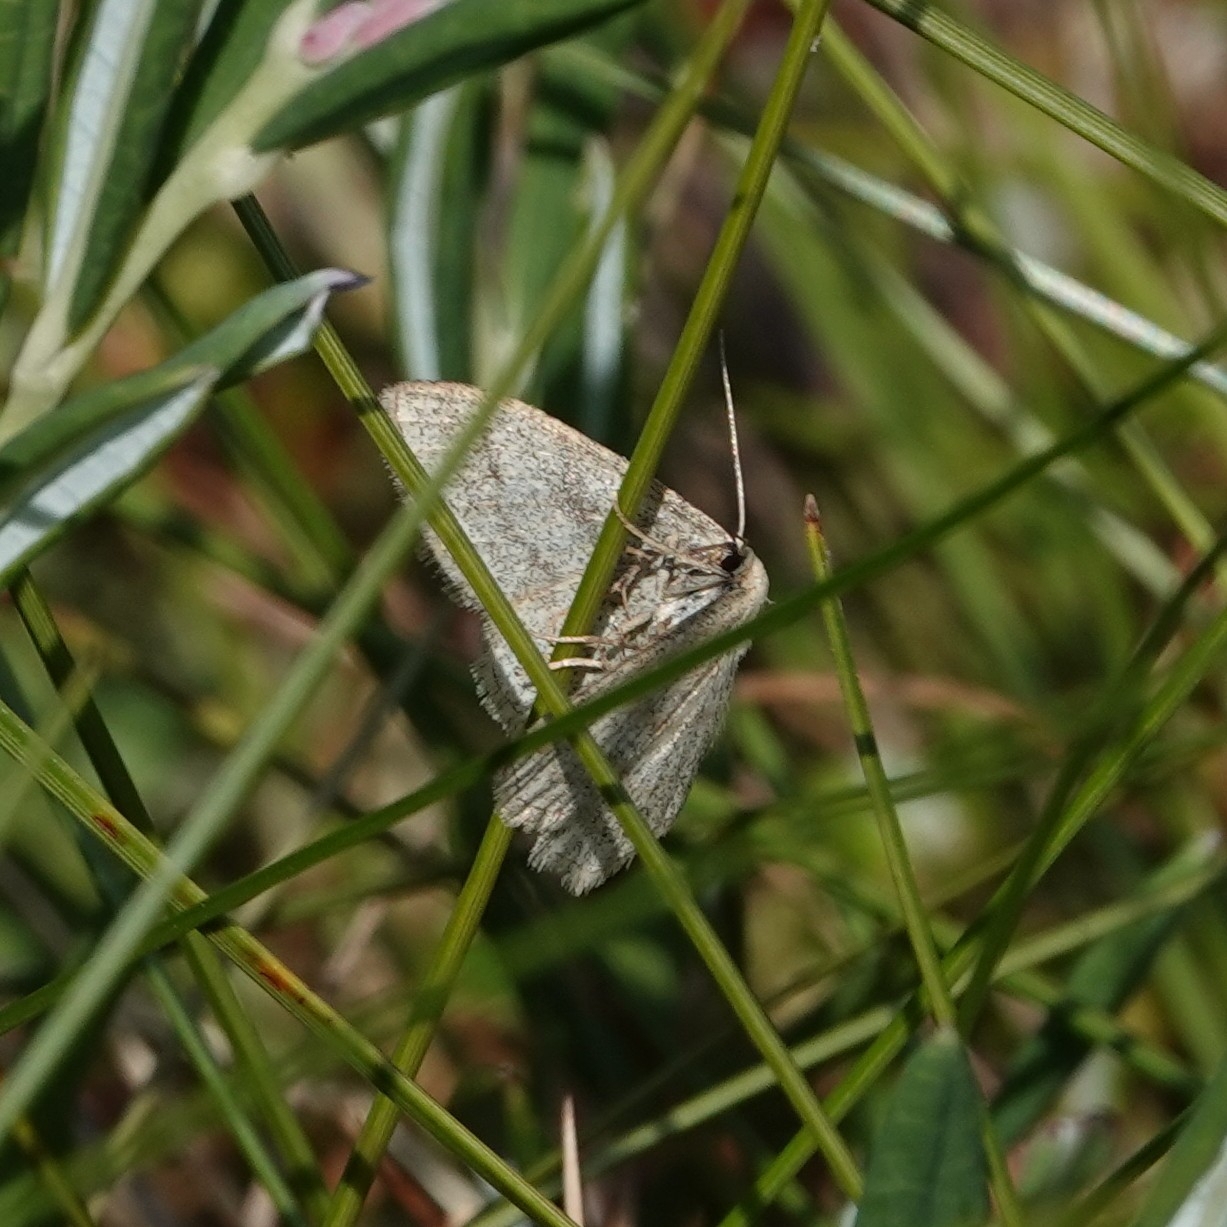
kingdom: Animalia
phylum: Arthropoda
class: Insecta
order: Lepidoptera
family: Geometridae
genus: Scopula
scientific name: Scopula ternata
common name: Smoky wave
